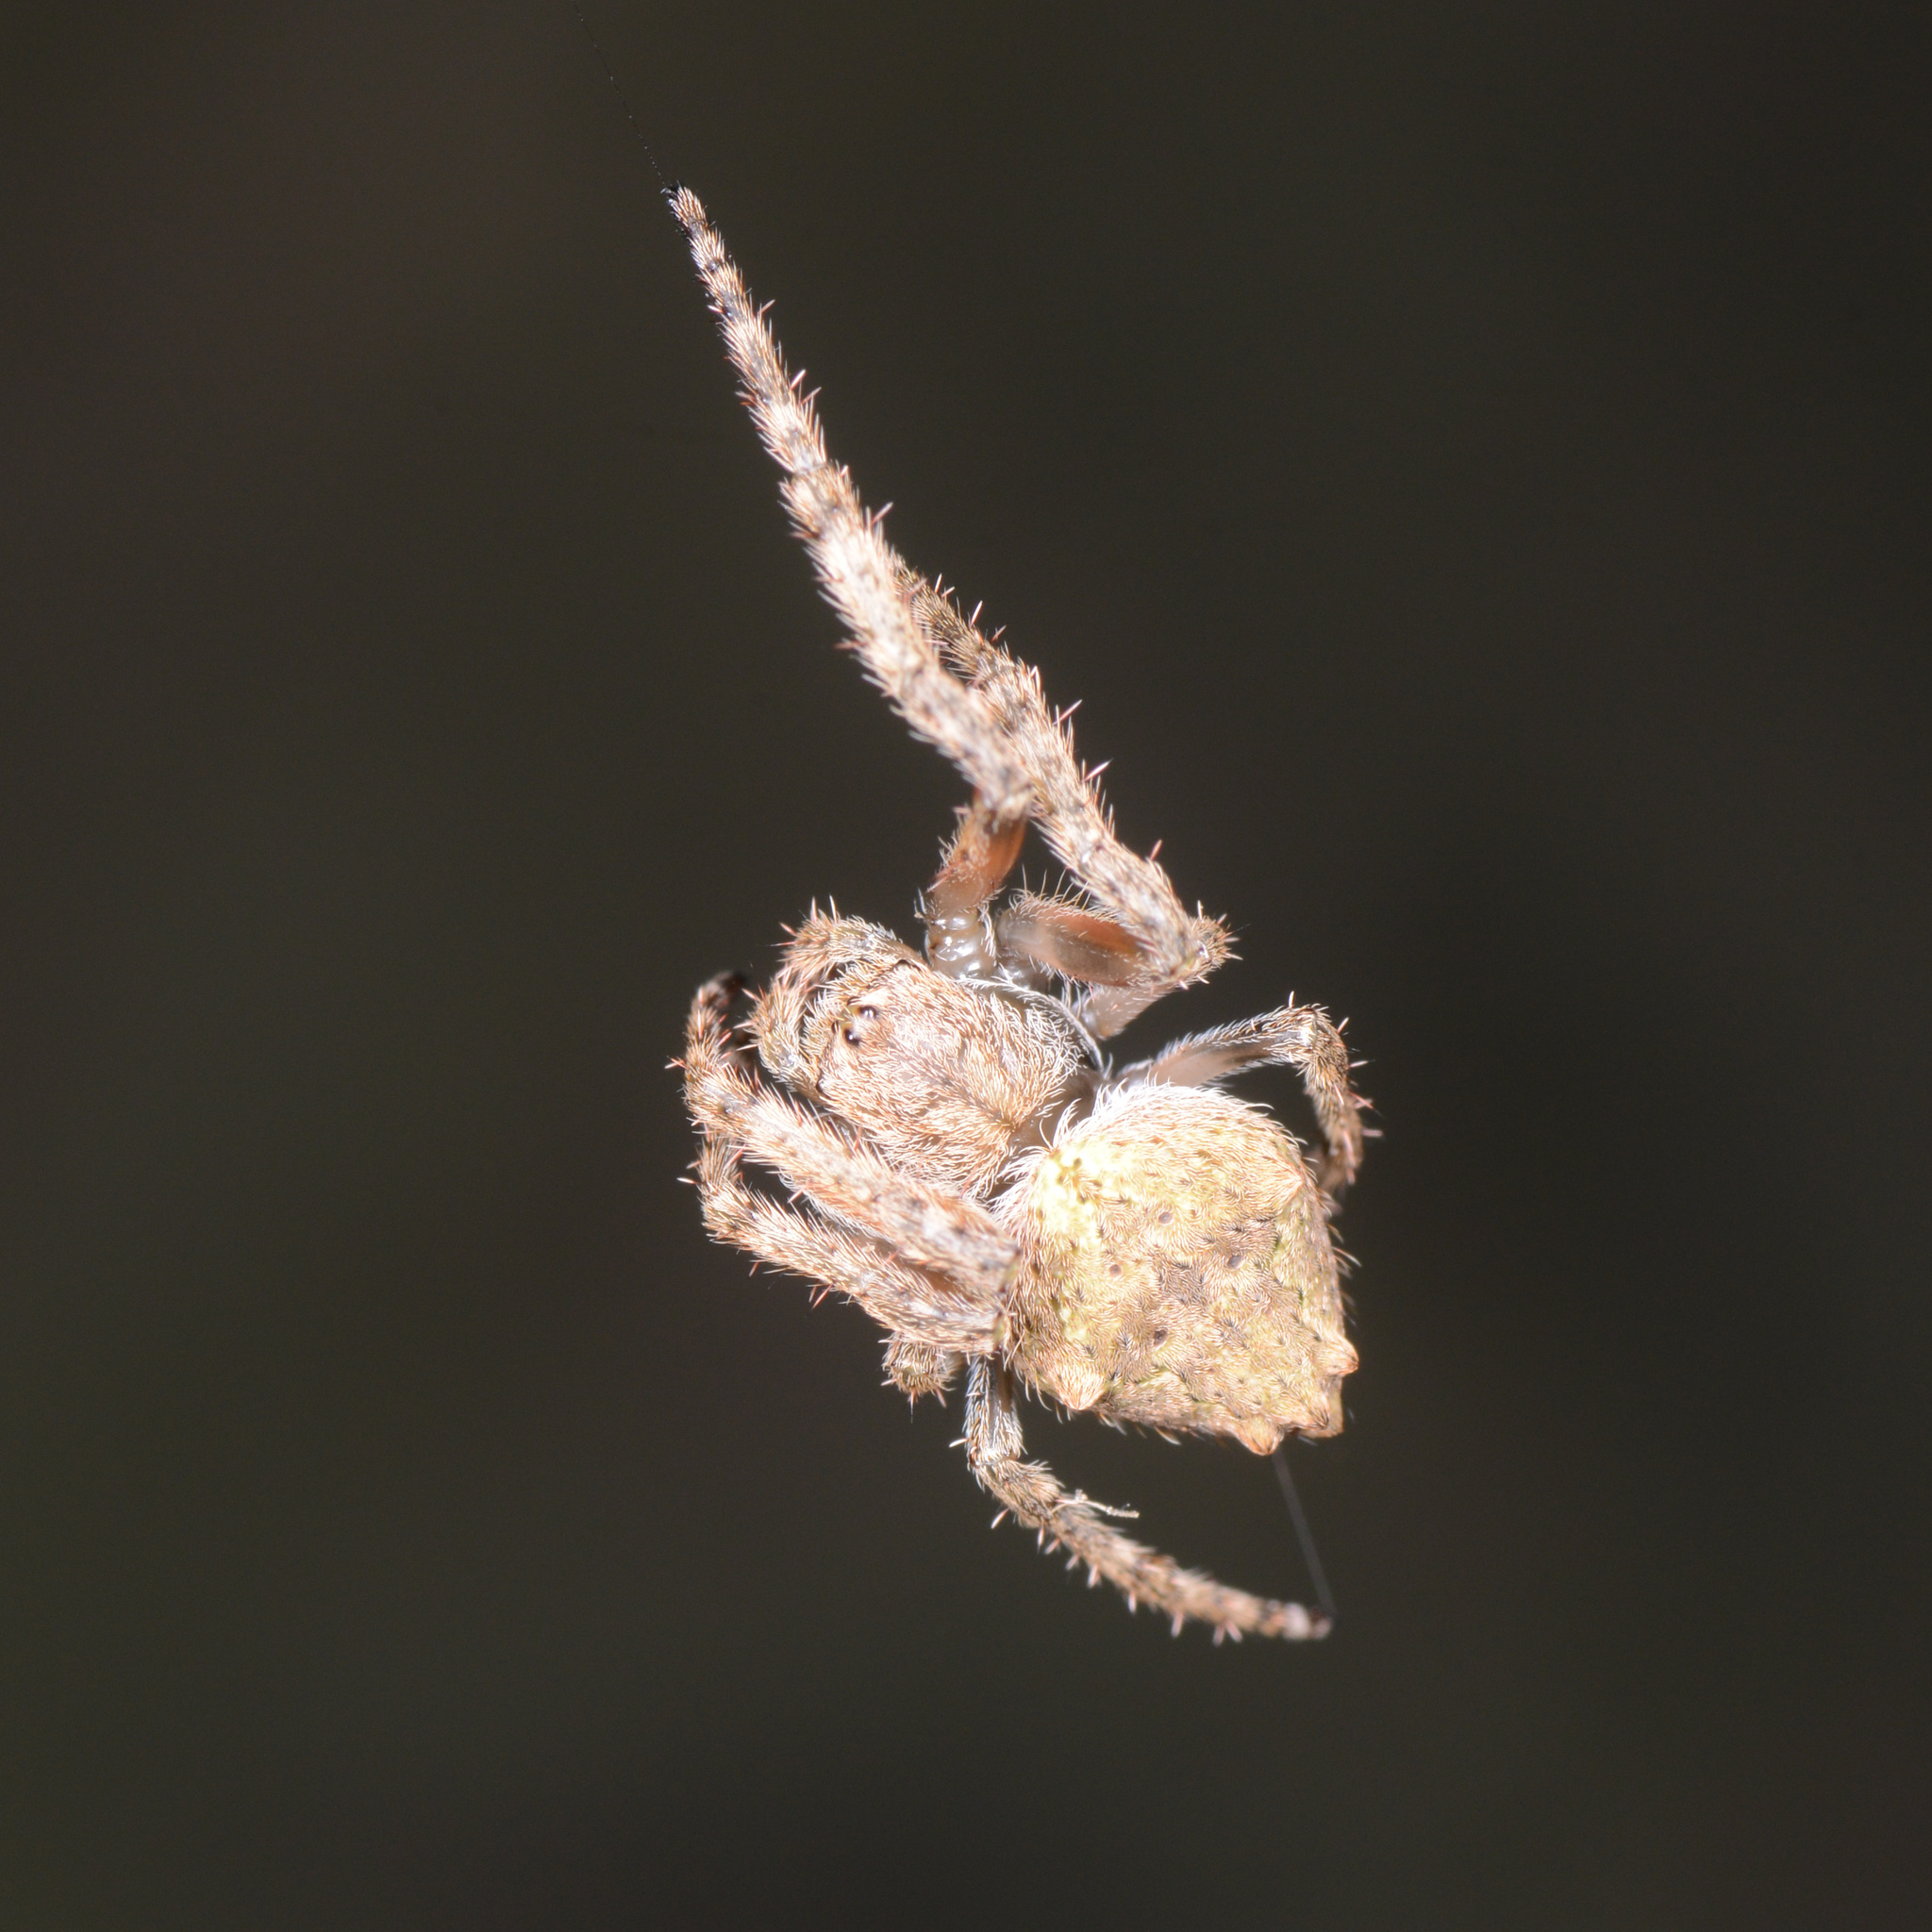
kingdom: Animalia
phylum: Arthropoda
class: Arachnida
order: Araneae
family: Araneidae
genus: Eriophora
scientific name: Eriophora pustulosa
